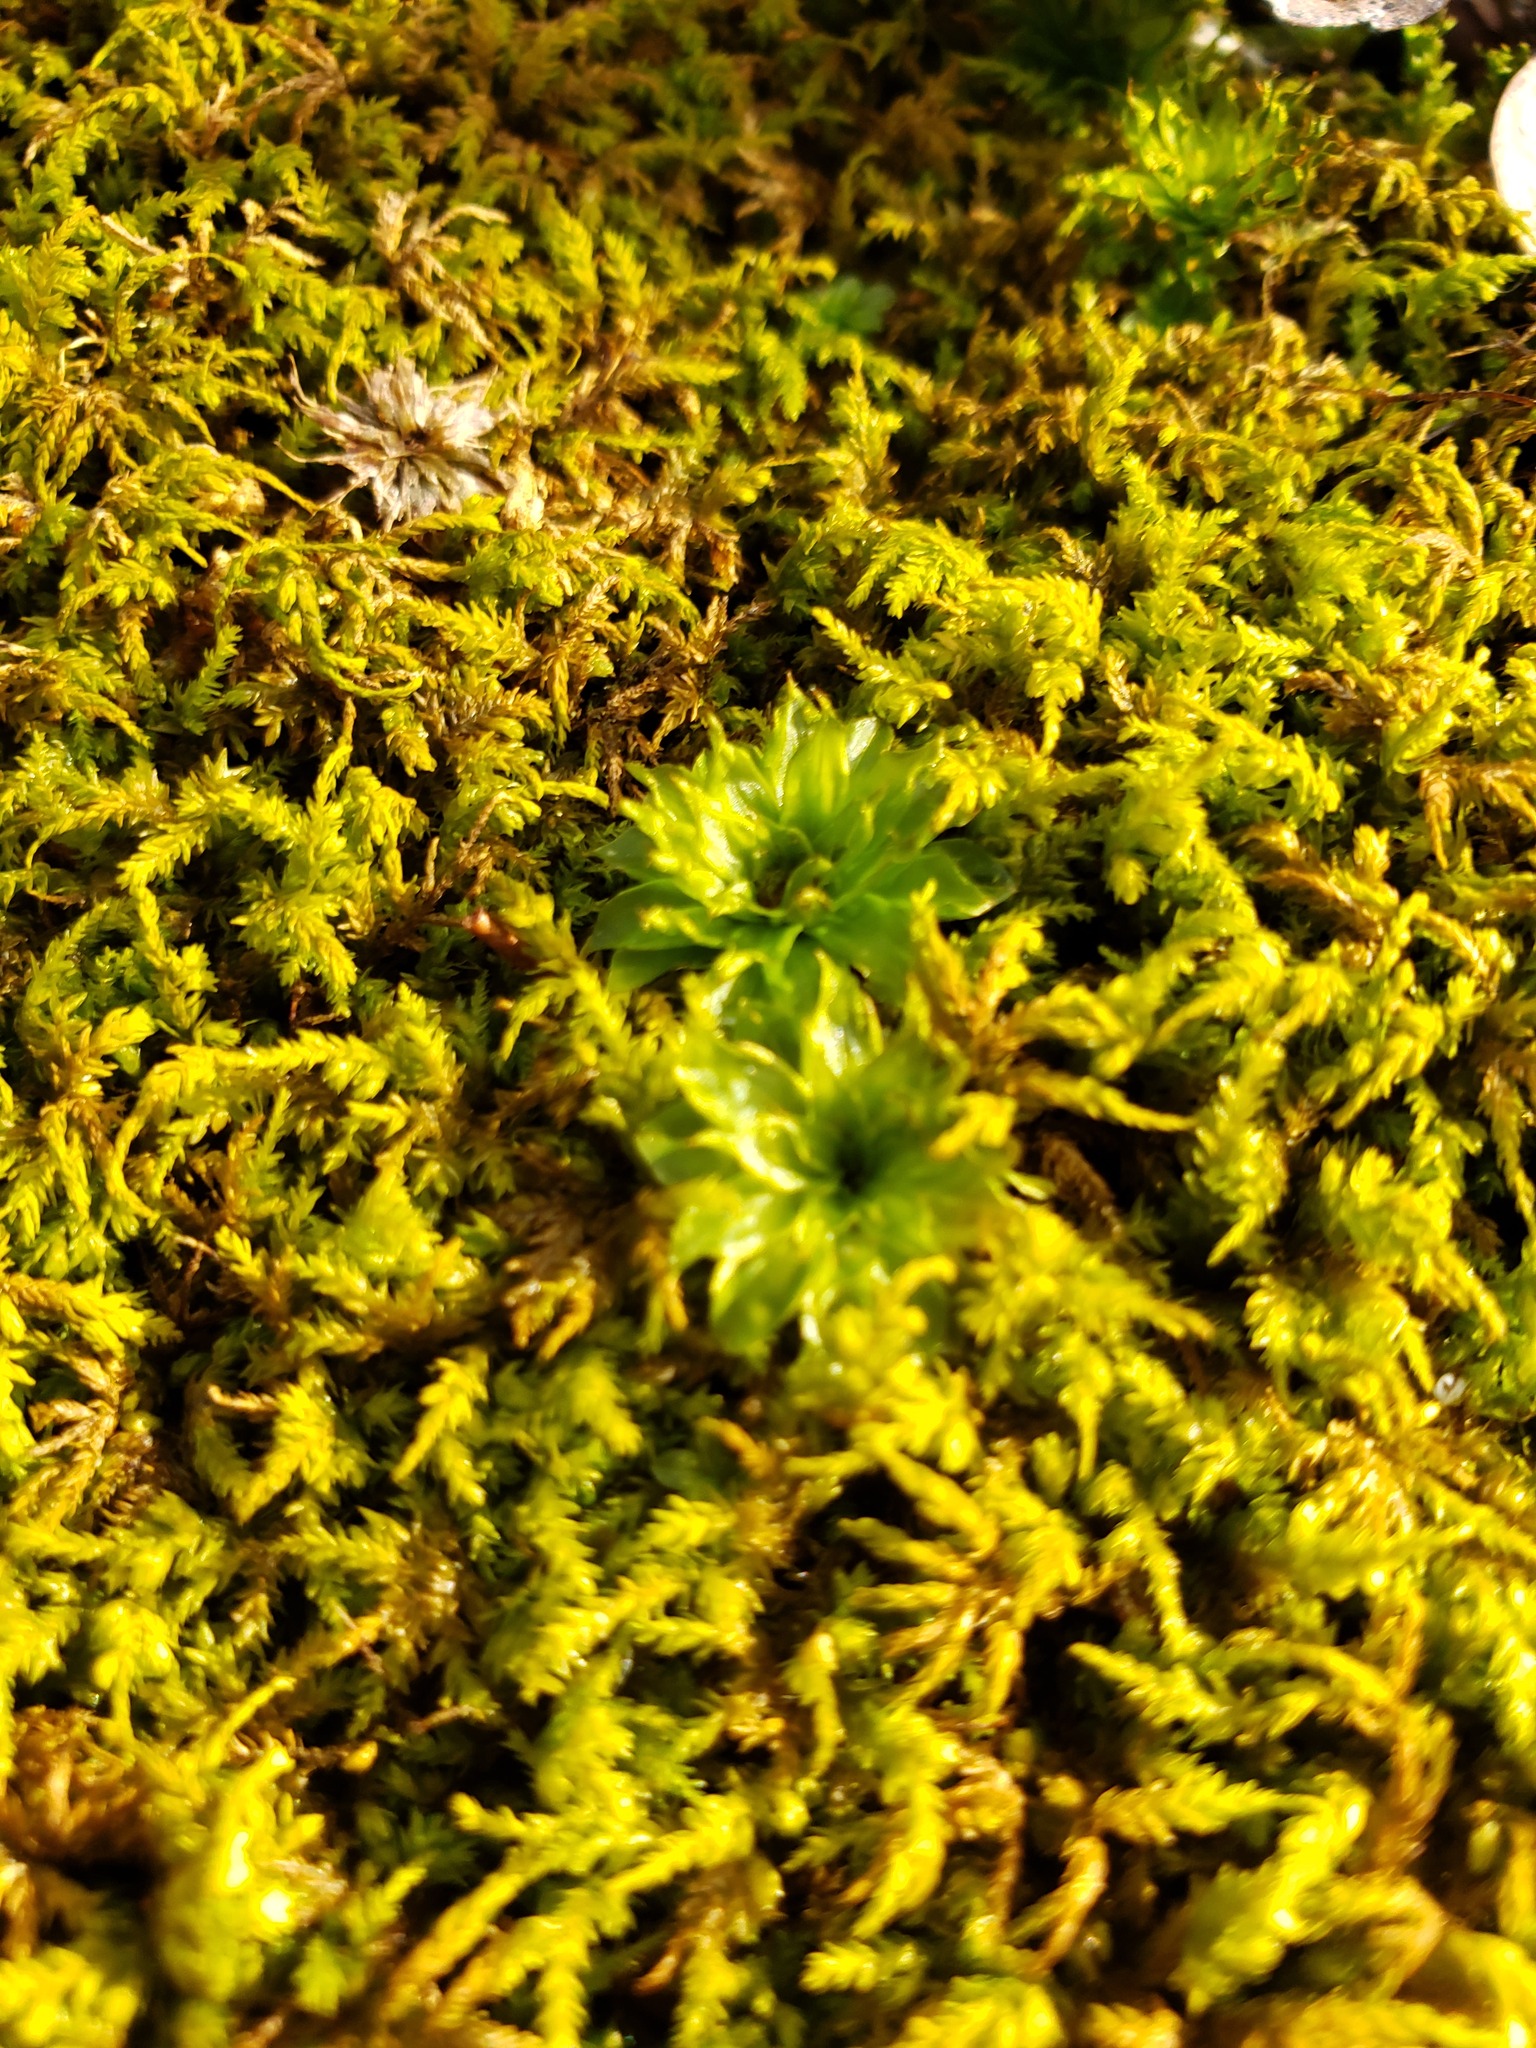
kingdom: Plantae
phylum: Bryophyta
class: Bryopsida
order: Bryales
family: Bryaceae
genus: Rhodobryum
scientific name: Rhodobryum ontariense
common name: Ontario rhodobryum moss
